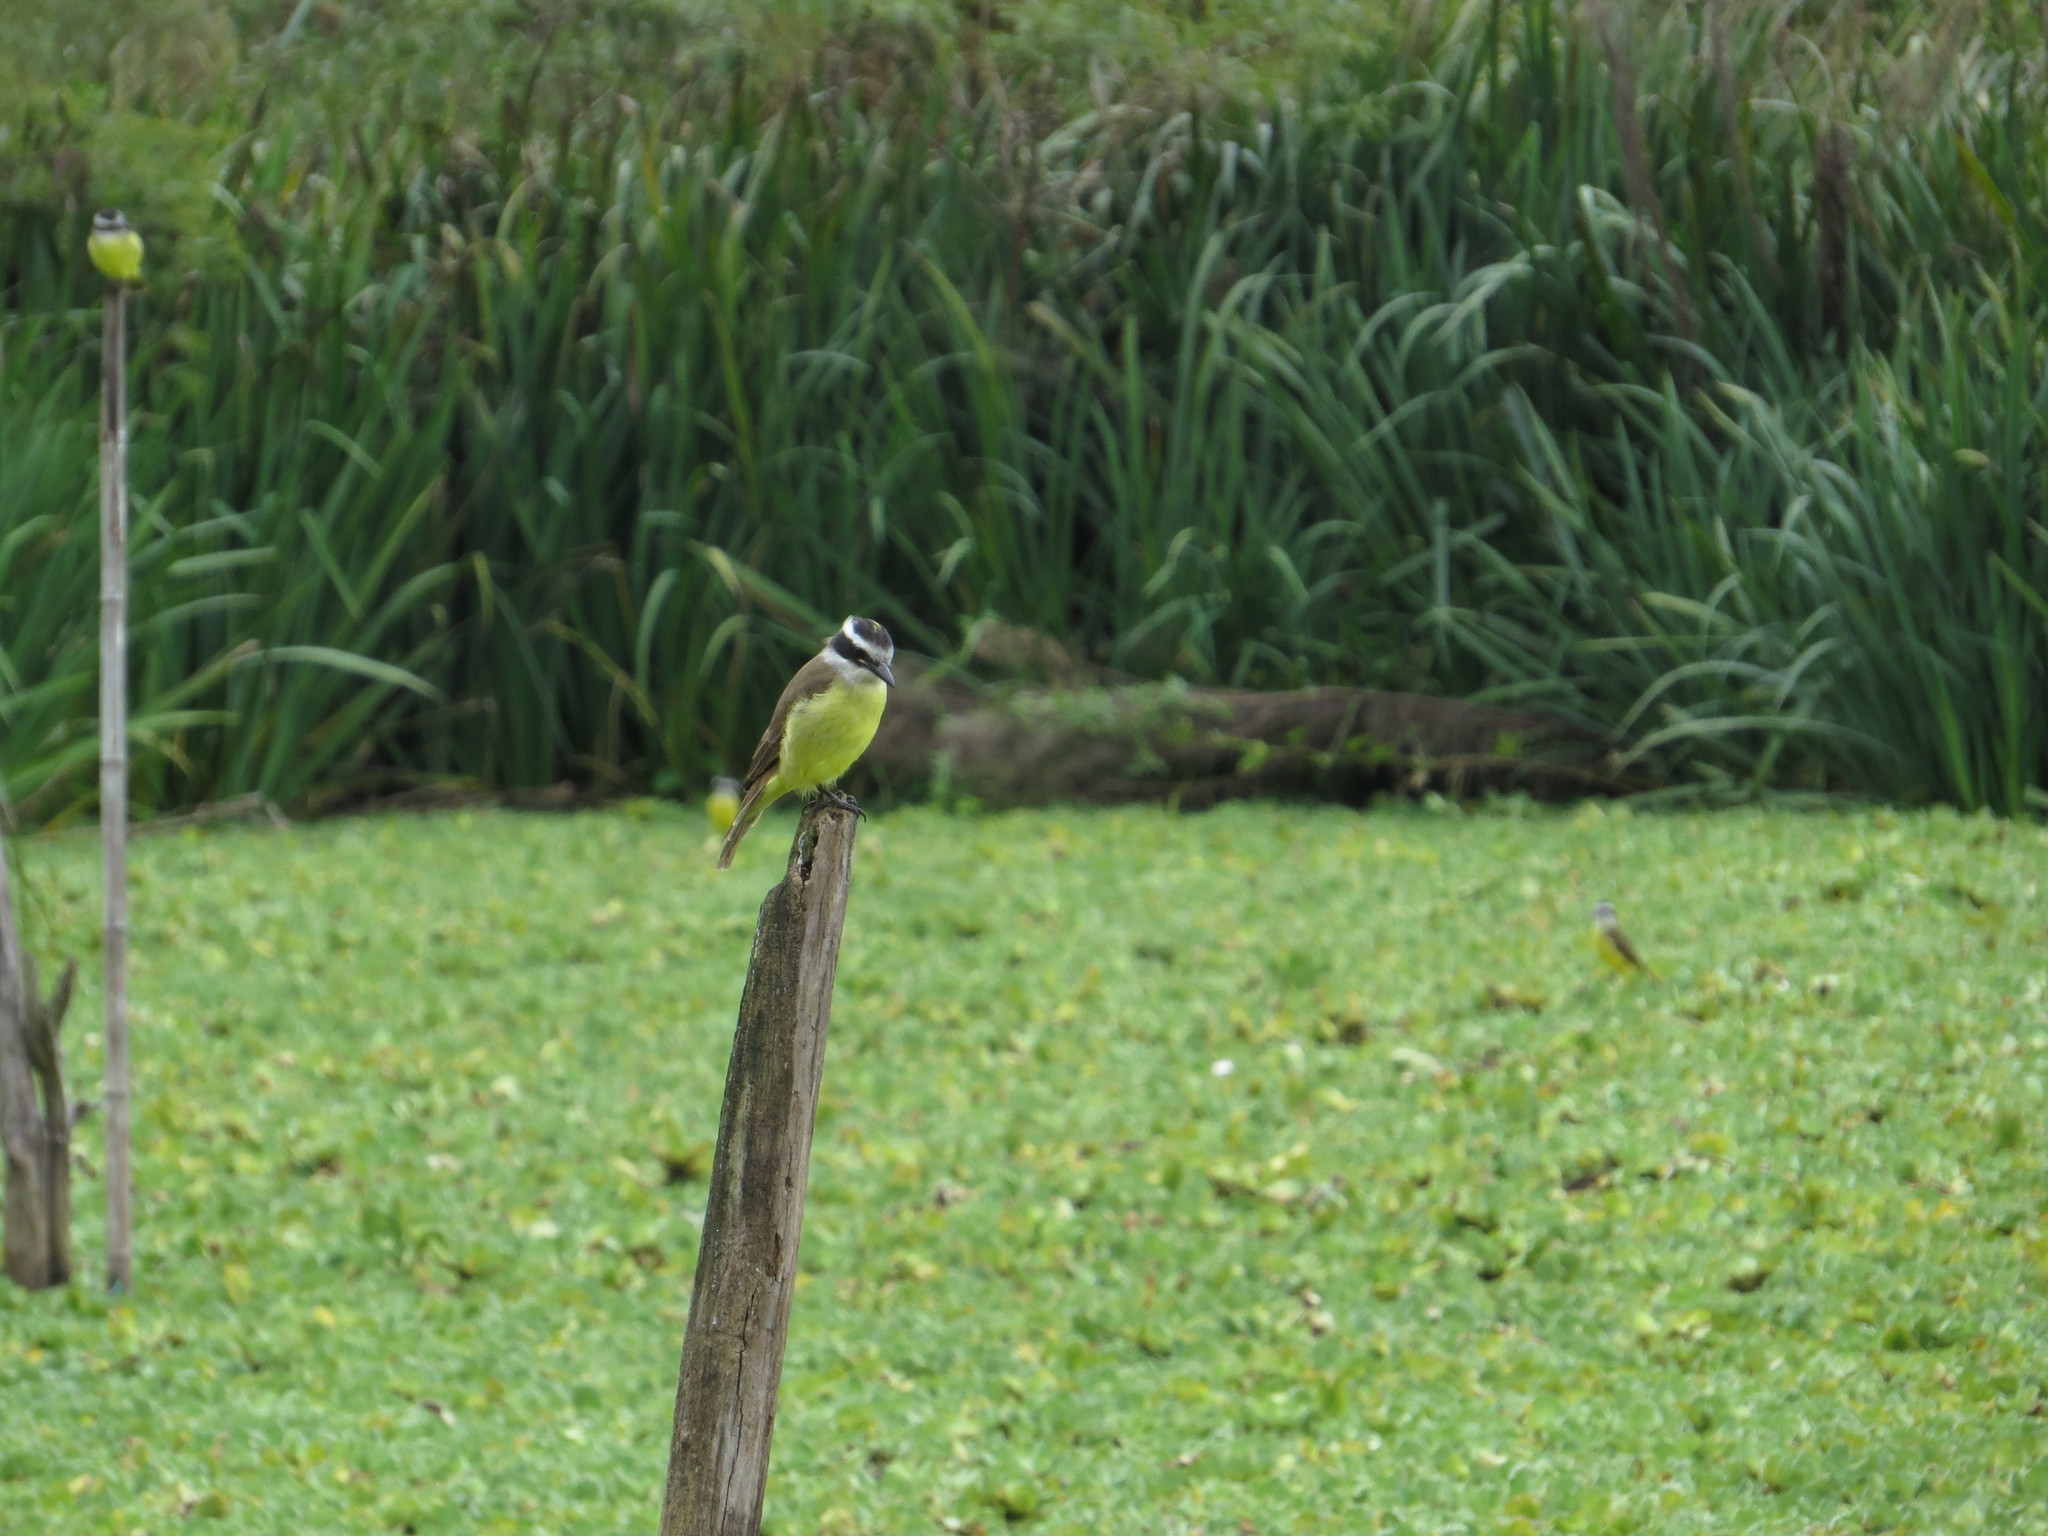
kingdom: Animalia
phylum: Chordata
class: Aves
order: Passeriformes
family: Tyrannidae
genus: Pitangus
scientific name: Pitangus sulphuratus
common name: Great kiskadee
